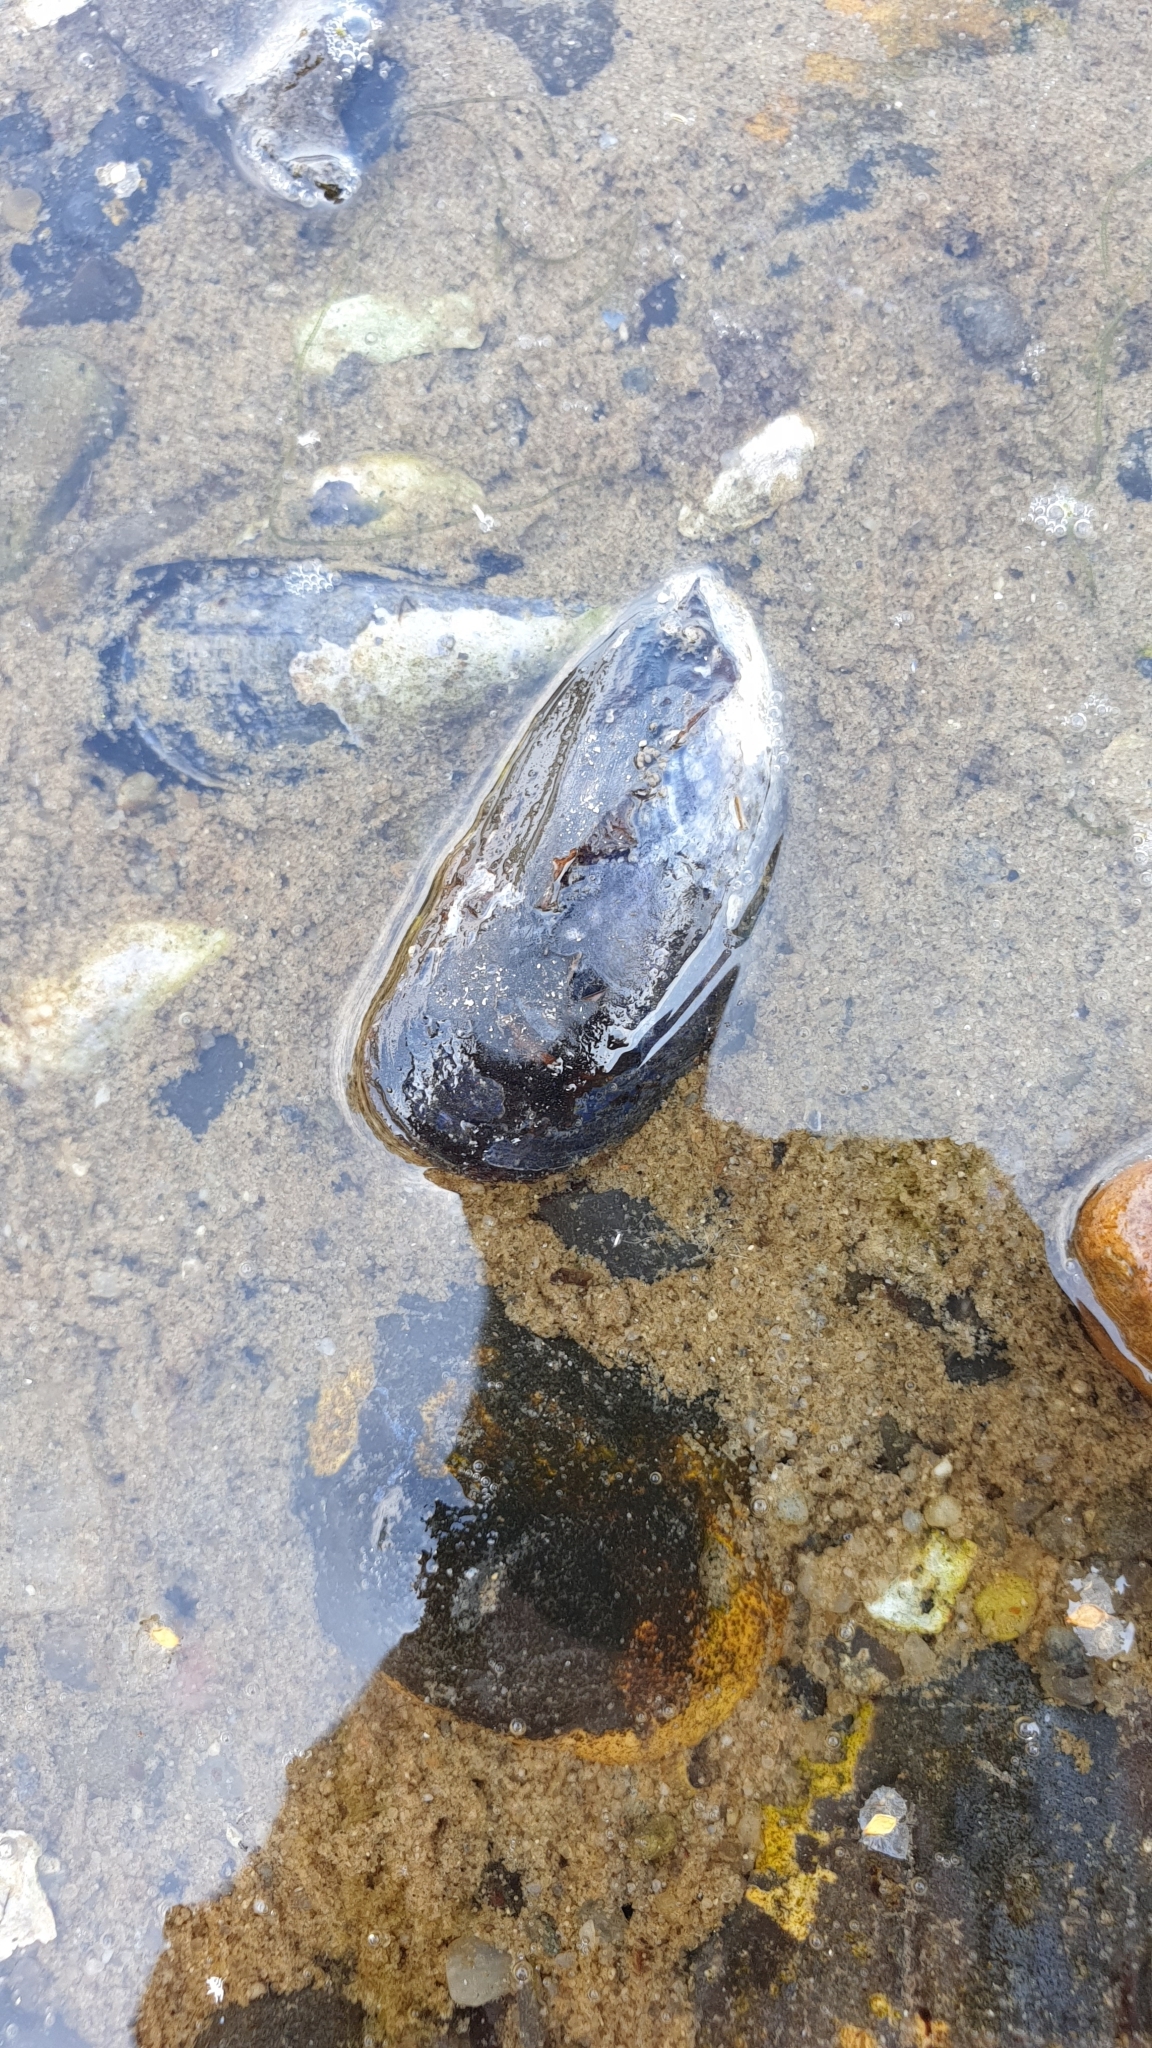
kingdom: Animalia
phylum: Mollusca
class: Bivalvia
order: Mytilida
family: Mytilidae
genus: Mytilus
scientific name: Mytilus edulis
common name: Blue mussel
